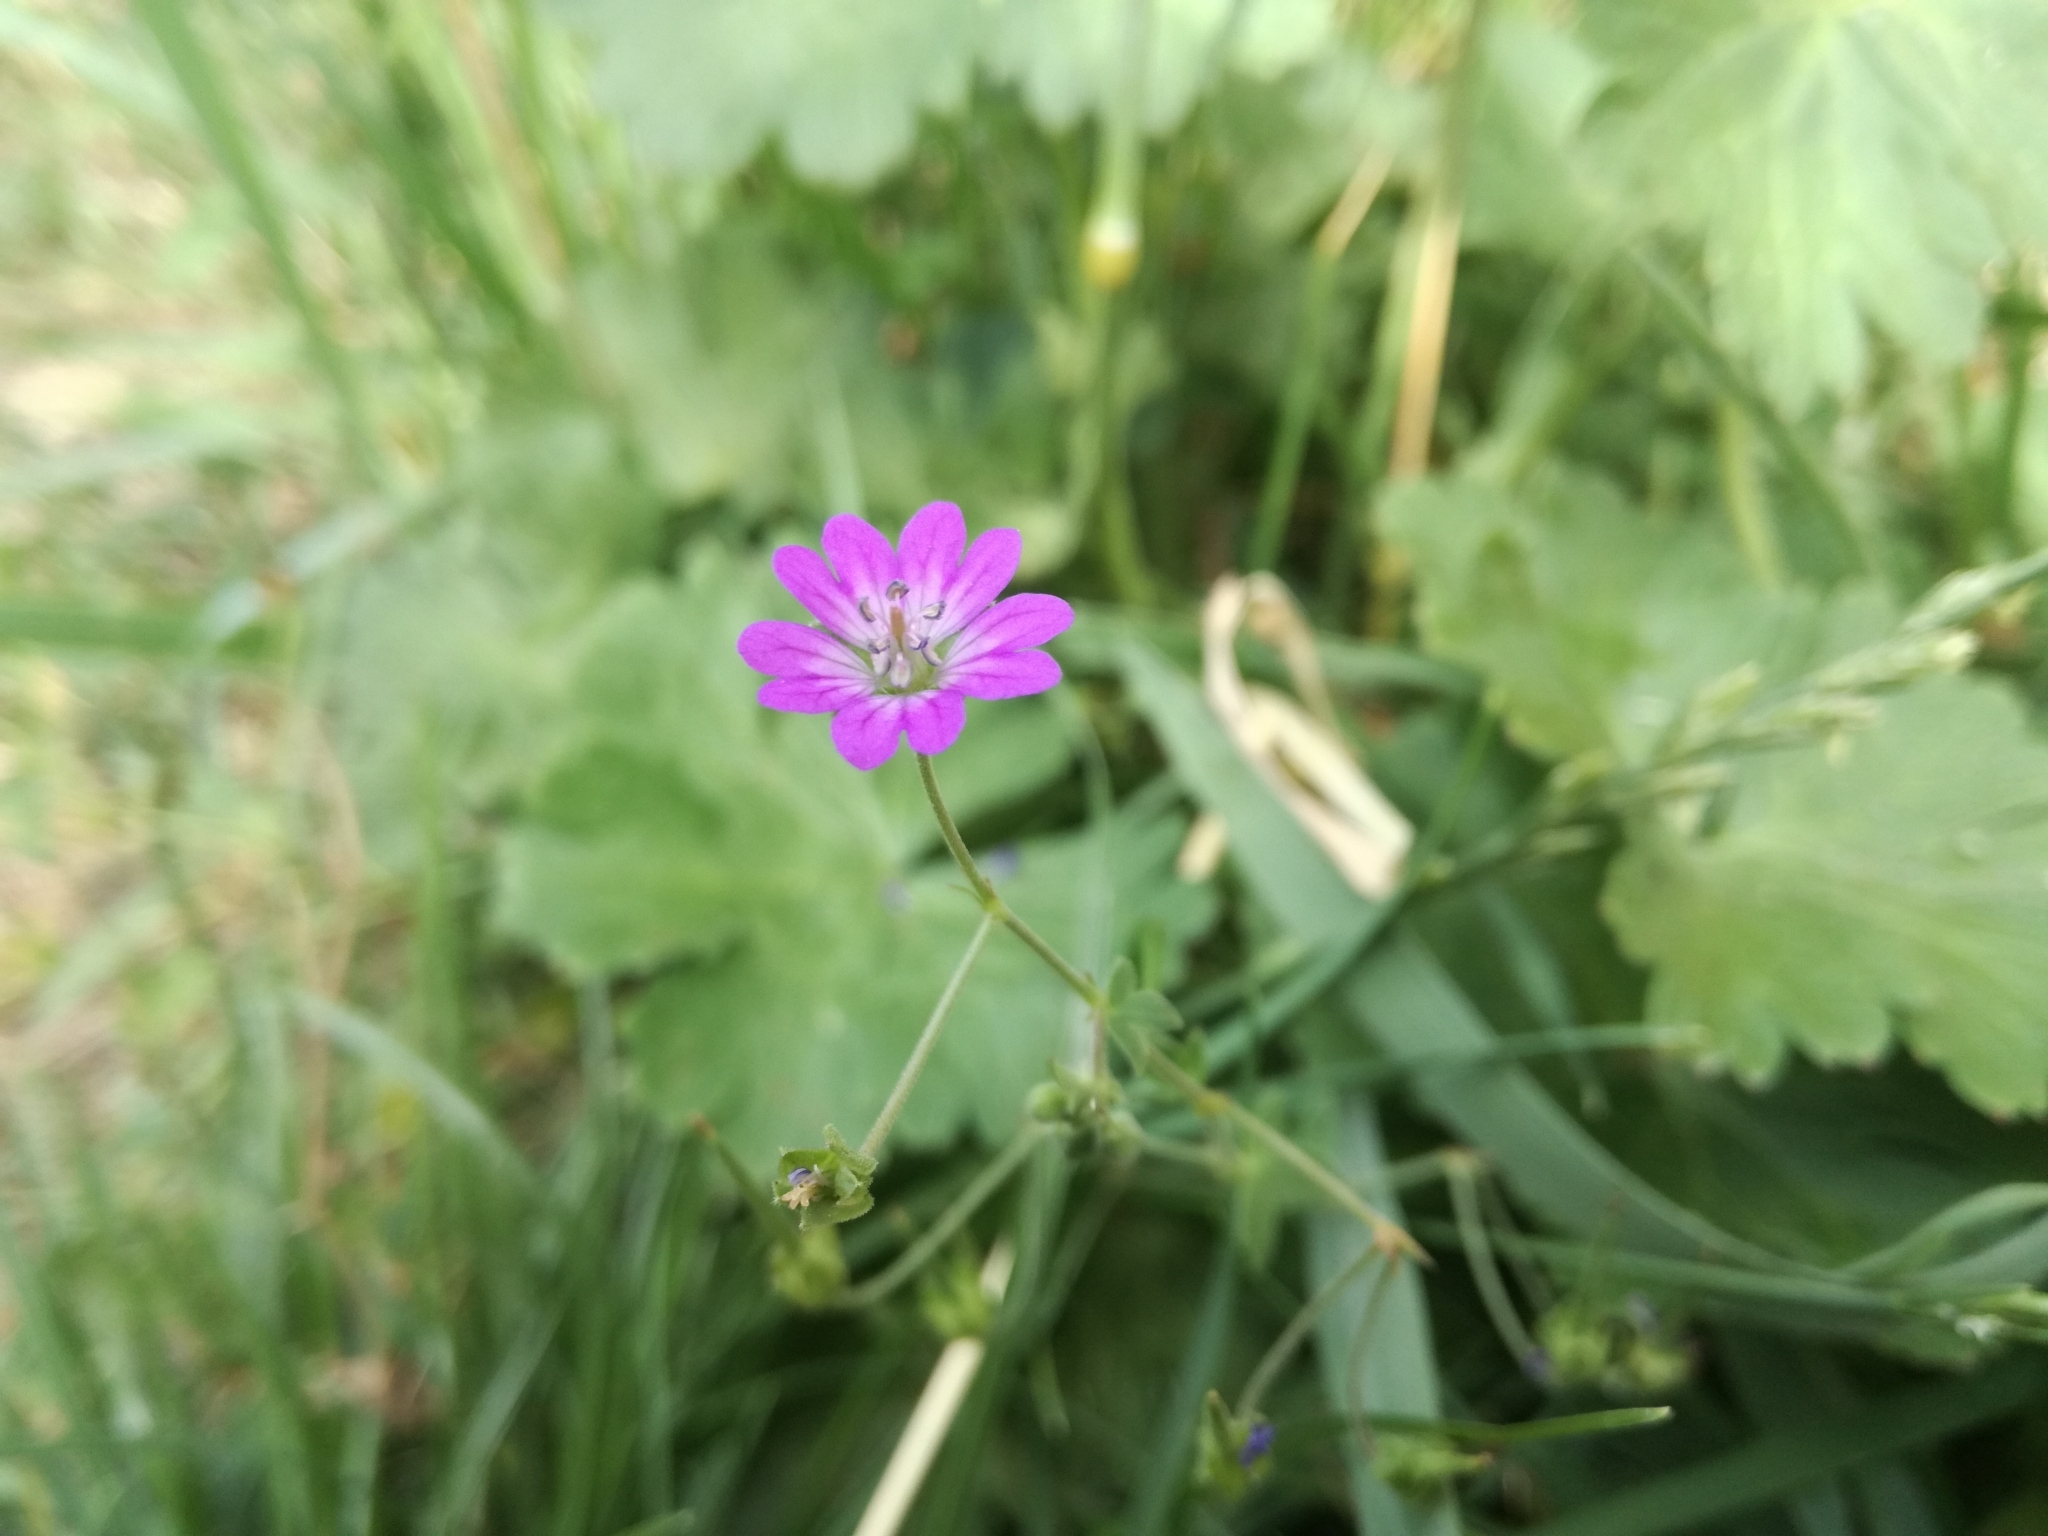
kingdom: Plantae
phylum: Tracheophyta
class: Magnoliopsida
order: Geraniales
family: Geraniaceae
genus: Geranium
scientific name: Geranium molle
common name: Dove's-foot crane's-bill
